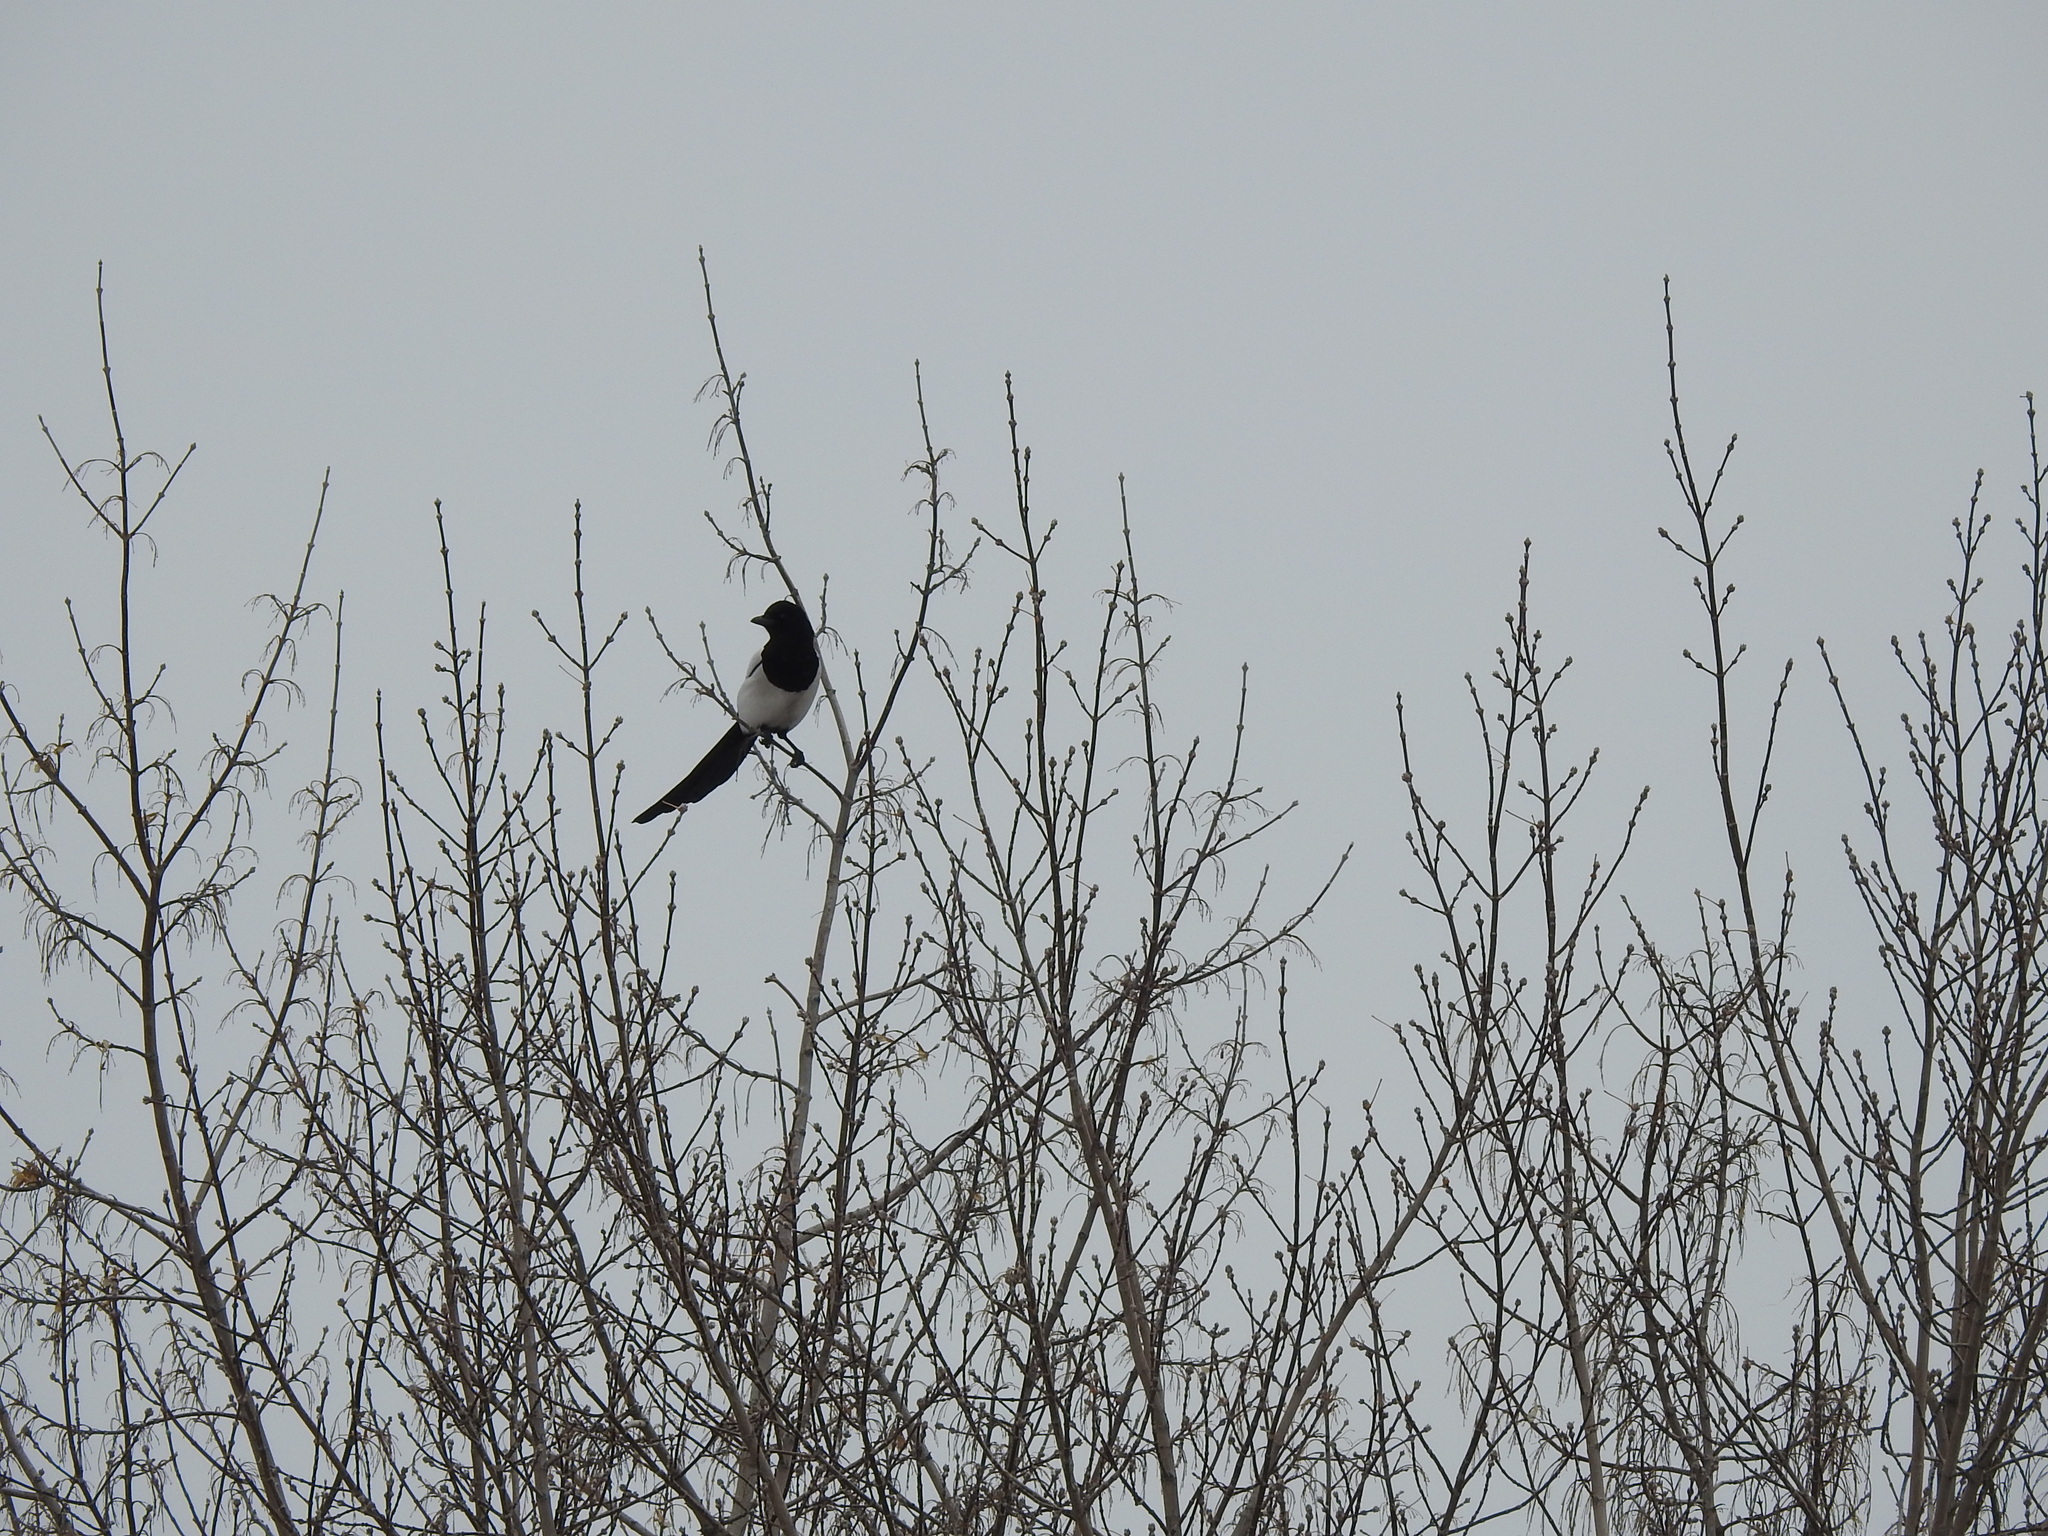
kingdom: Animalia
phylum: Chordata
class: Aves
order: Passeriformes
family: Corvidae
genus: Pica
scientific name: Pica pica
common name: Eurasian magpie
